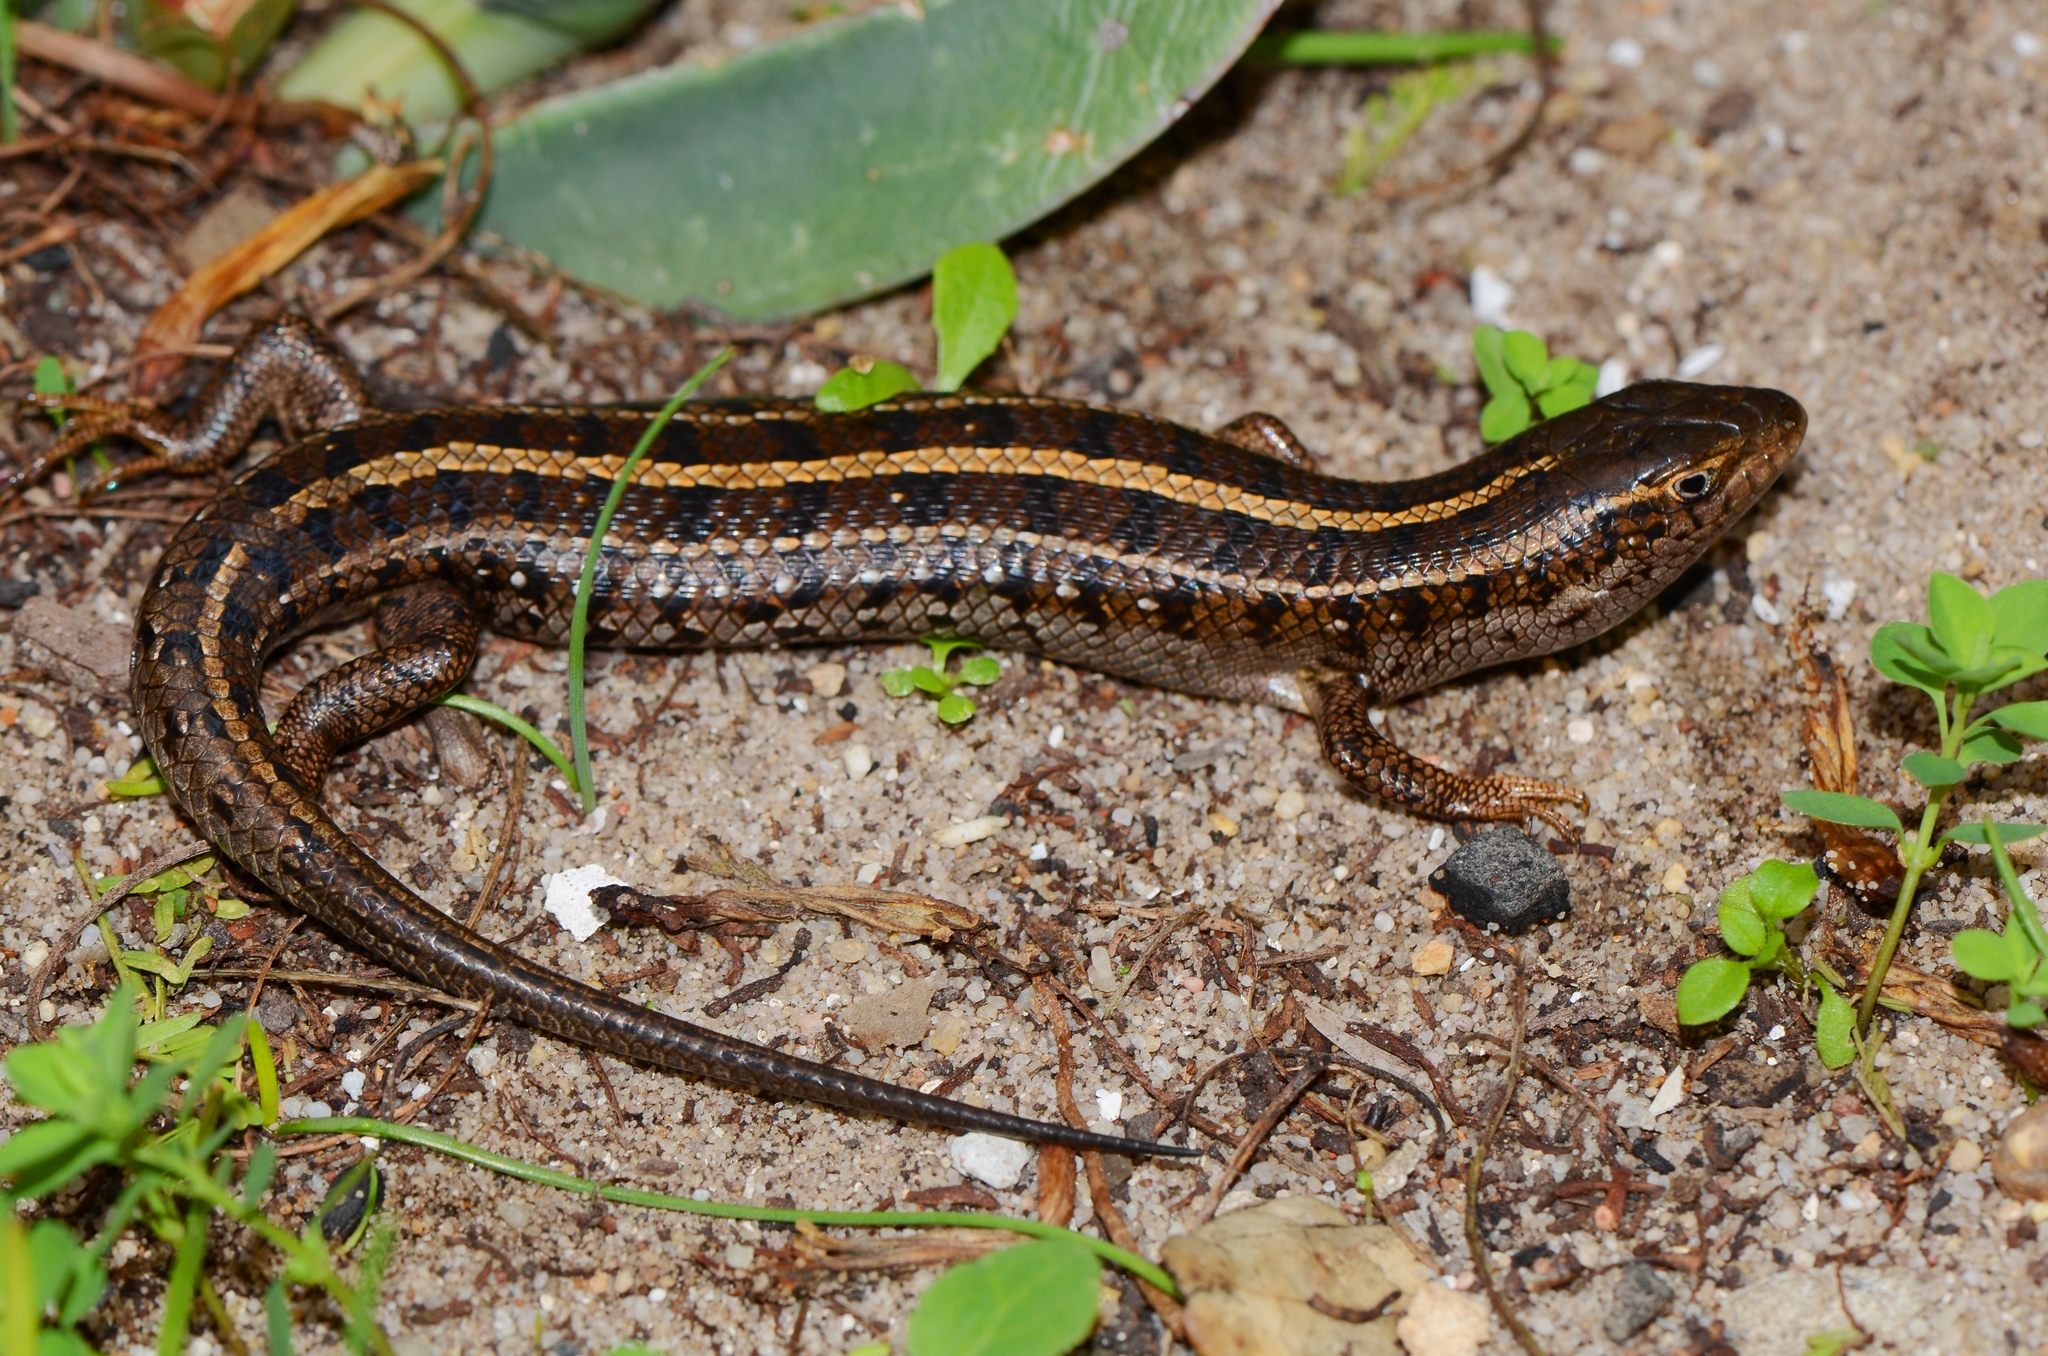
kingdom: Animalia
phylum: Chordata
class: Squamata
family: Scincidae
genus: Trachylepis
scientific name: Trachylepis capensis
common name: Cape skink
